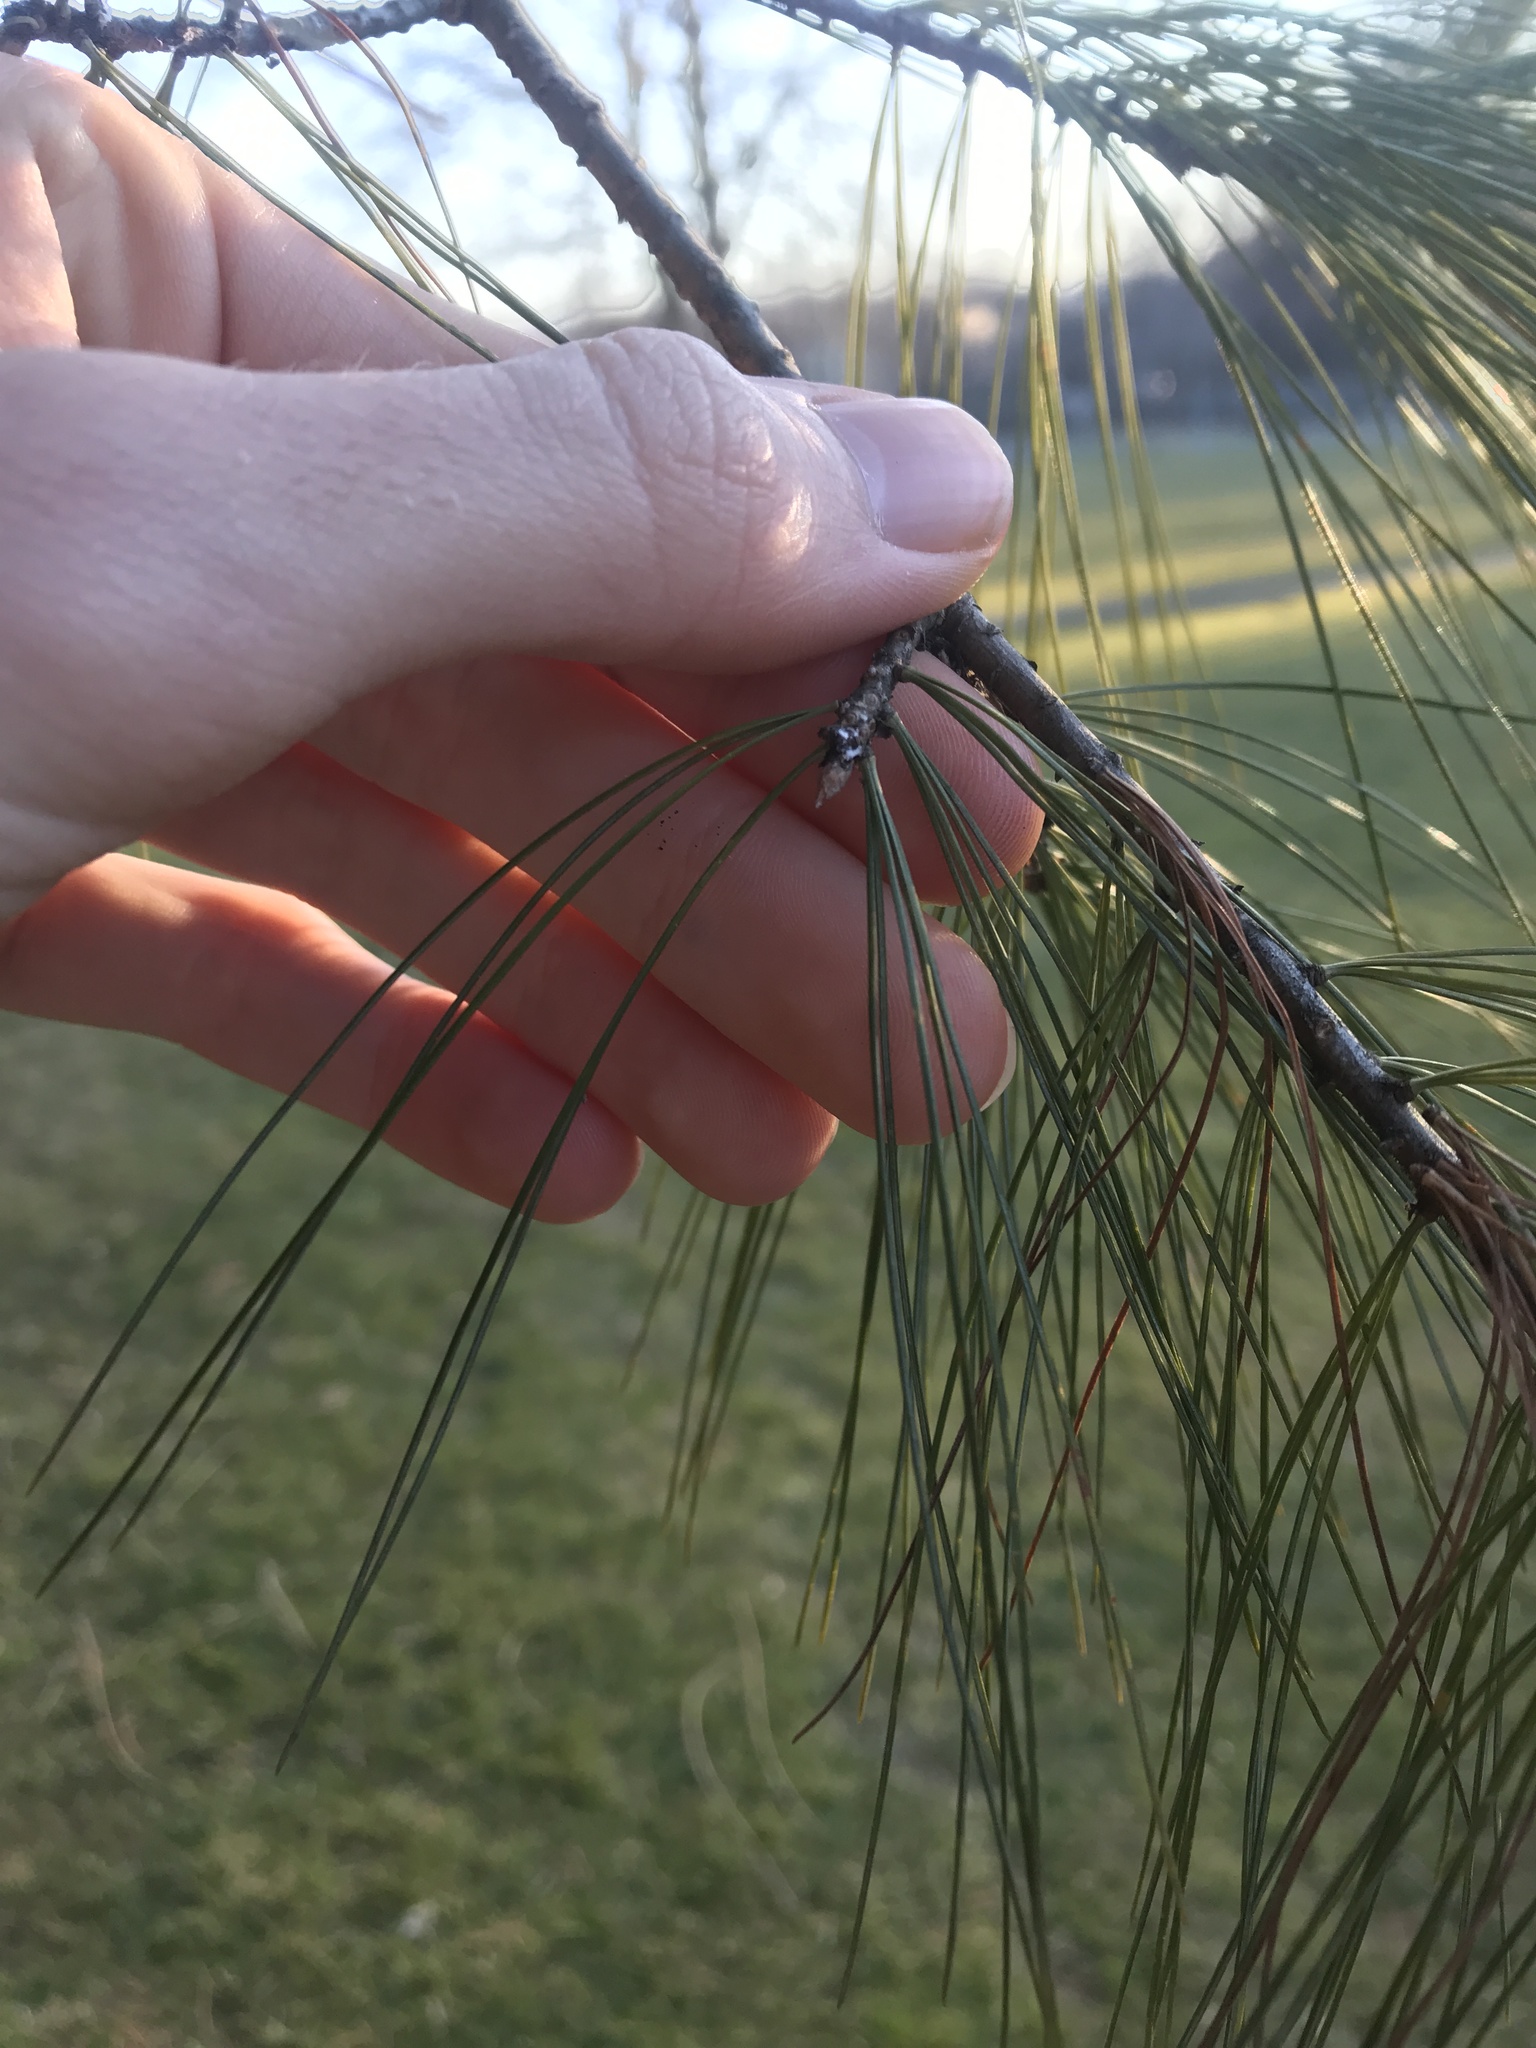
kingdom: Plantae
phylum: Tracheophyta
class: Pinopsida
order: Pinales
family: Pinaceae
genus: Pinus
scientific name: Pinus strobus
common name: Weymouth pine
